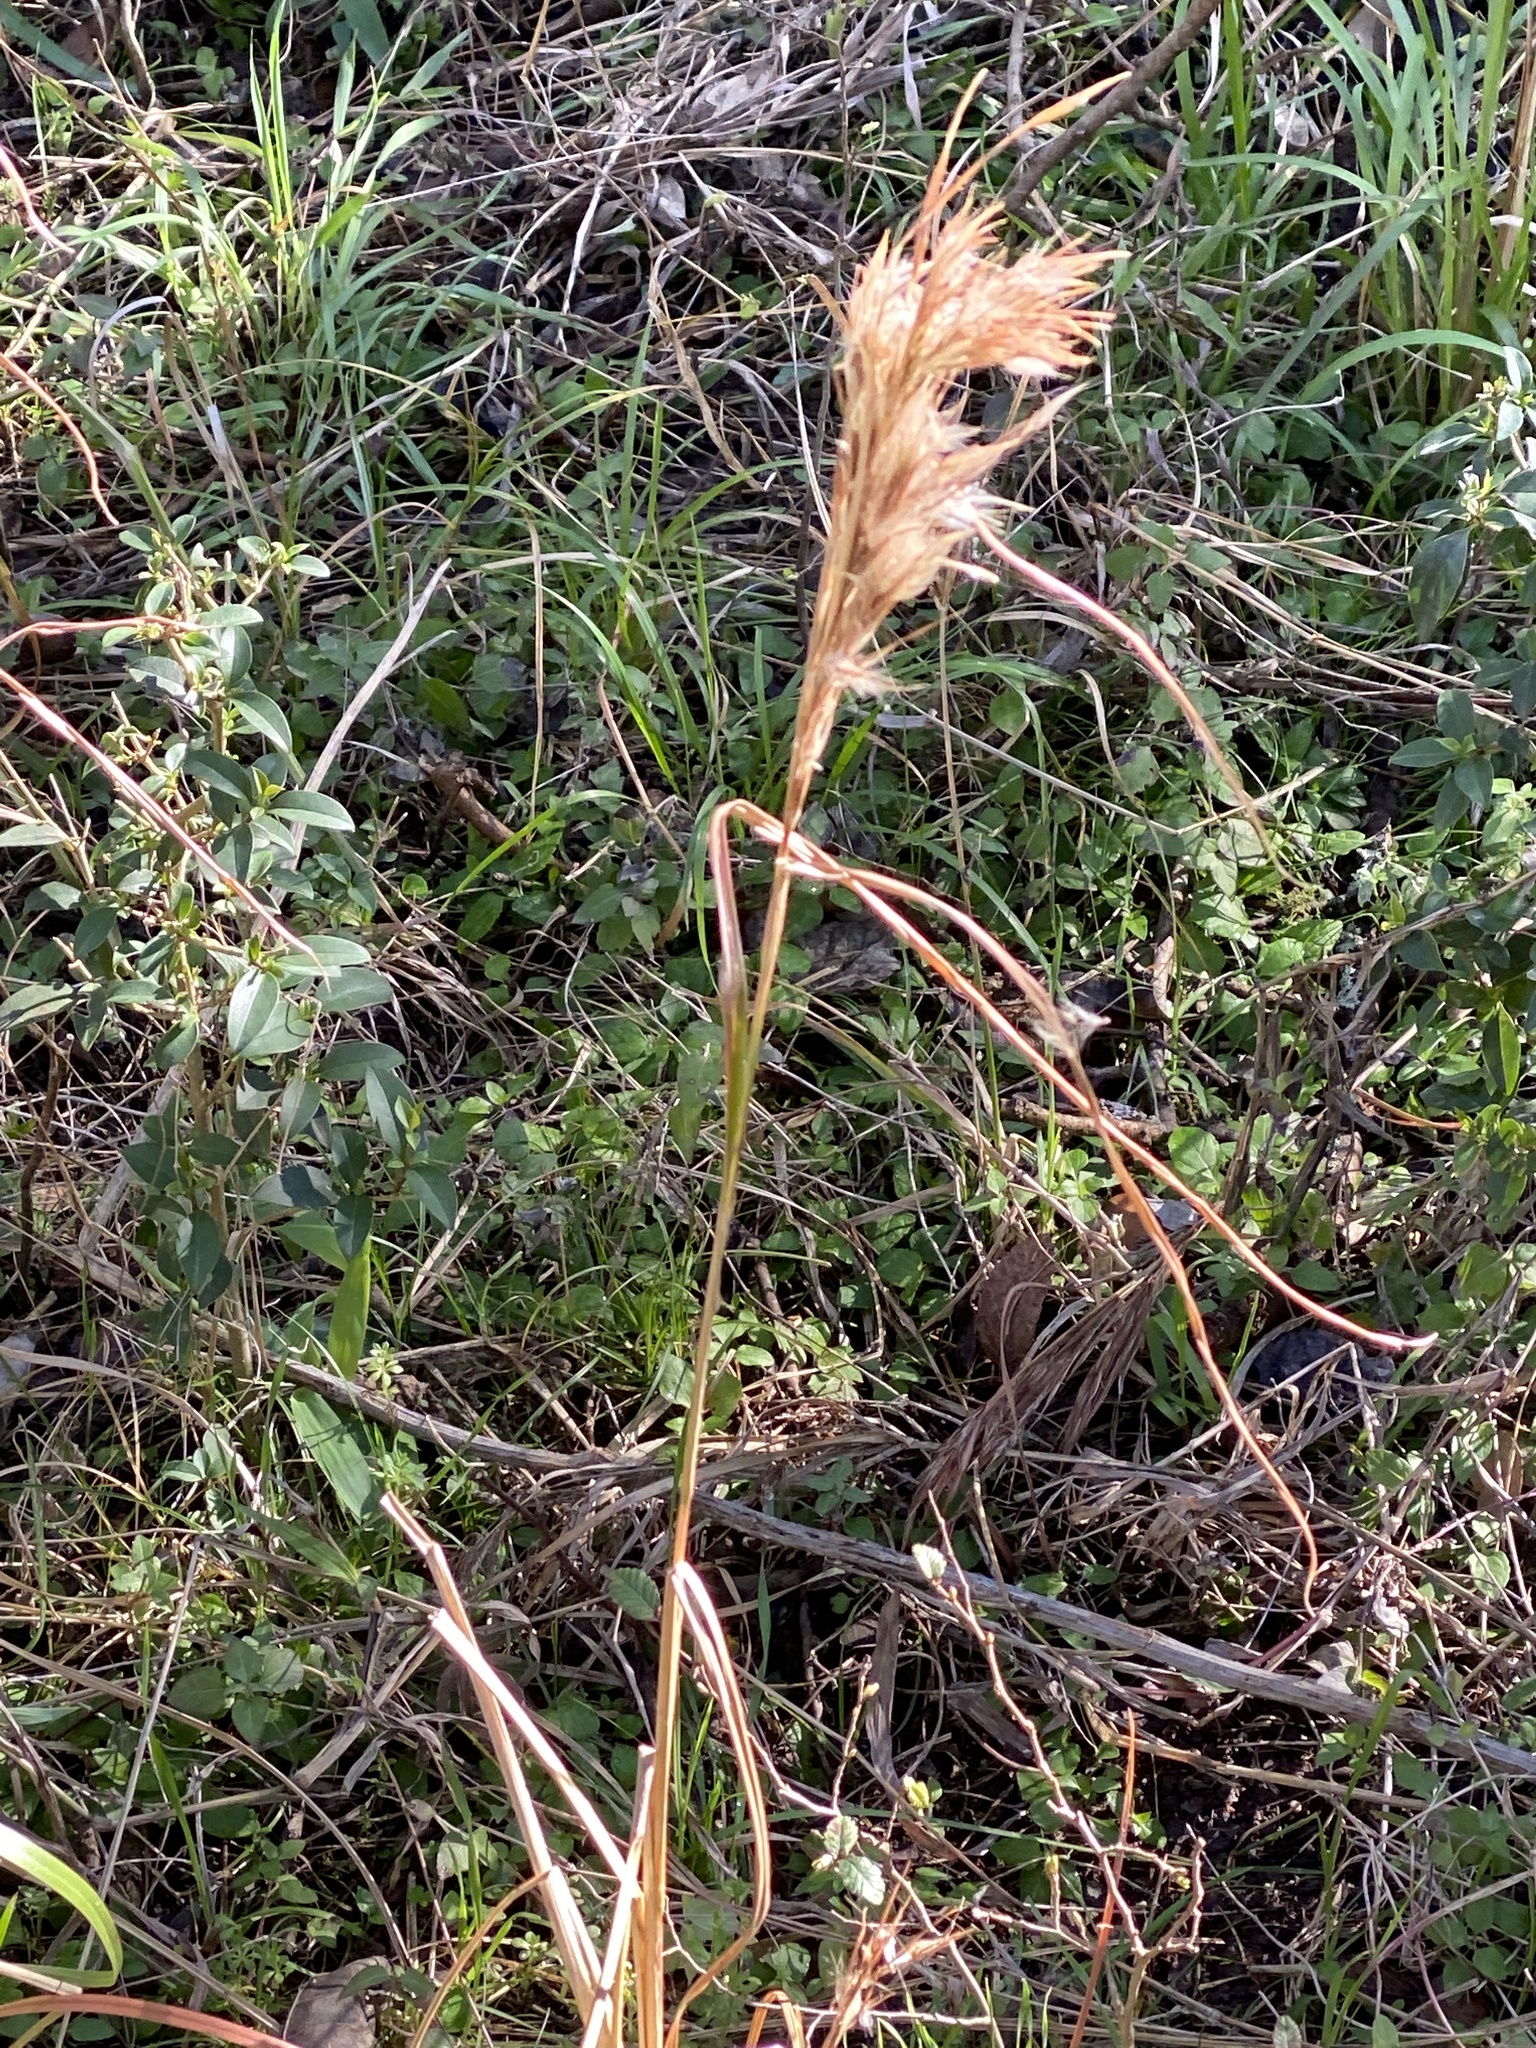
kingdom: Plantae
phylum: Tracheophyta
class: Liliopsida
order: Poales
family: Poaceae
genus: Andropogon
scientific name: Andropogon tenuispatheus
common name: Bushy bluestem
